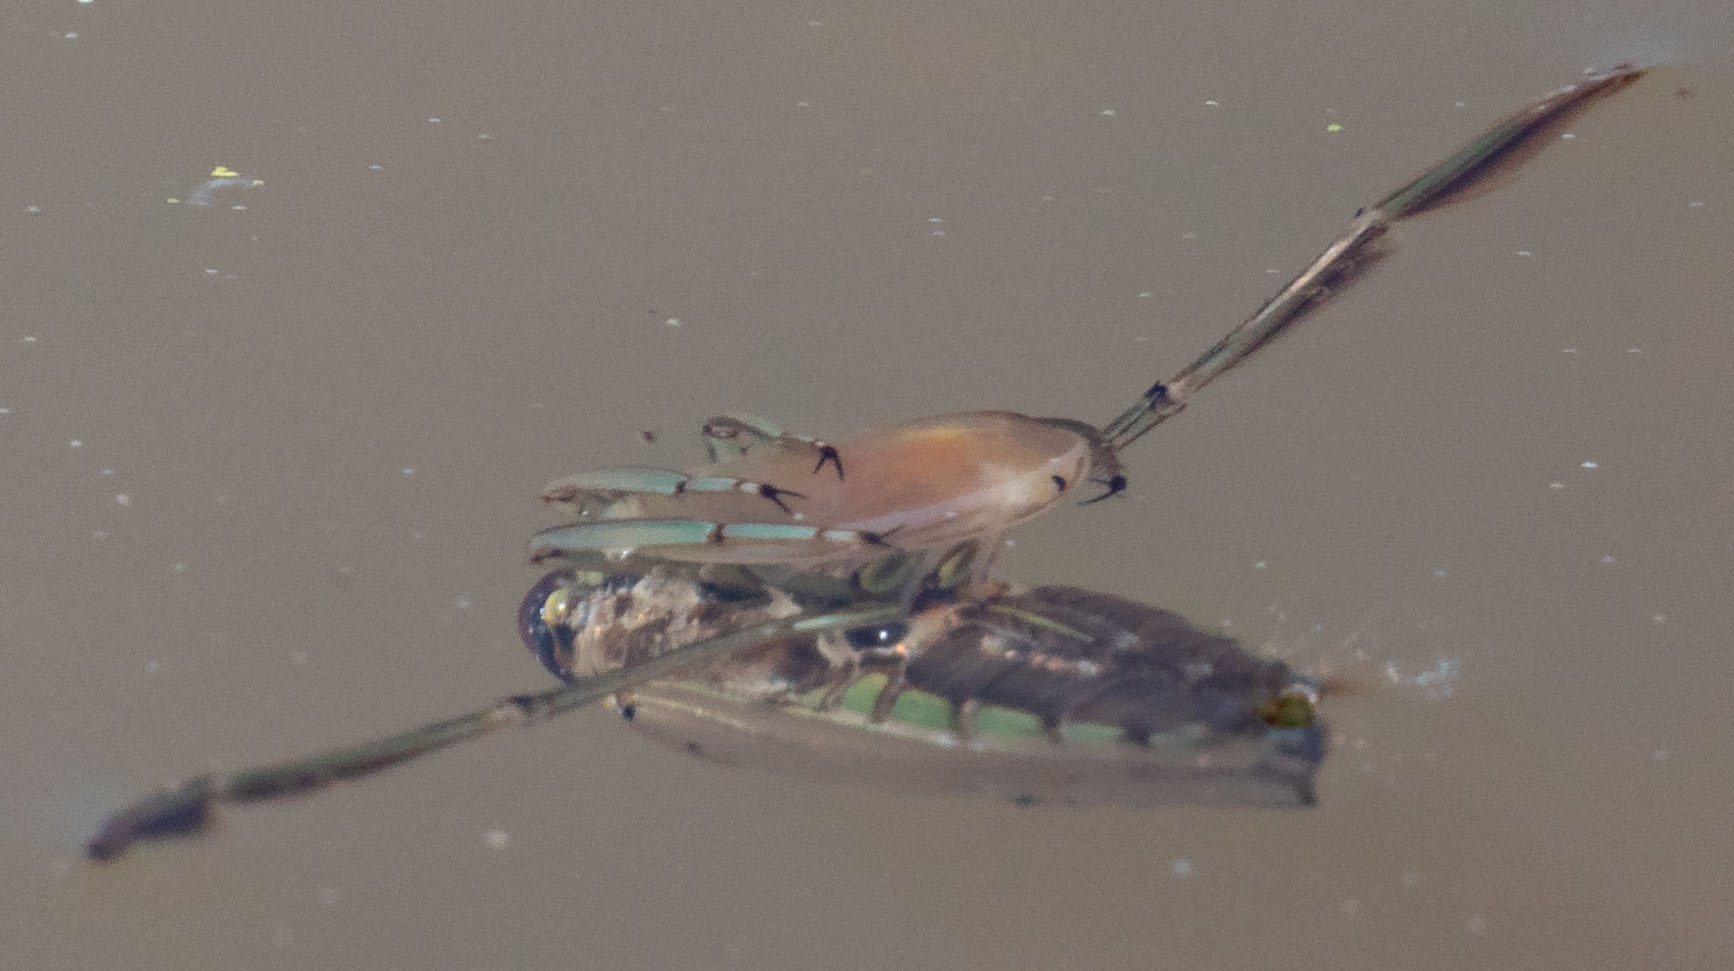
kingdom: Animalia
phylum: Arthropoda
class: Insecta
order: Hemiptera
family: Notonectidae
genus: Notonecta
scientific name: Notonecta
